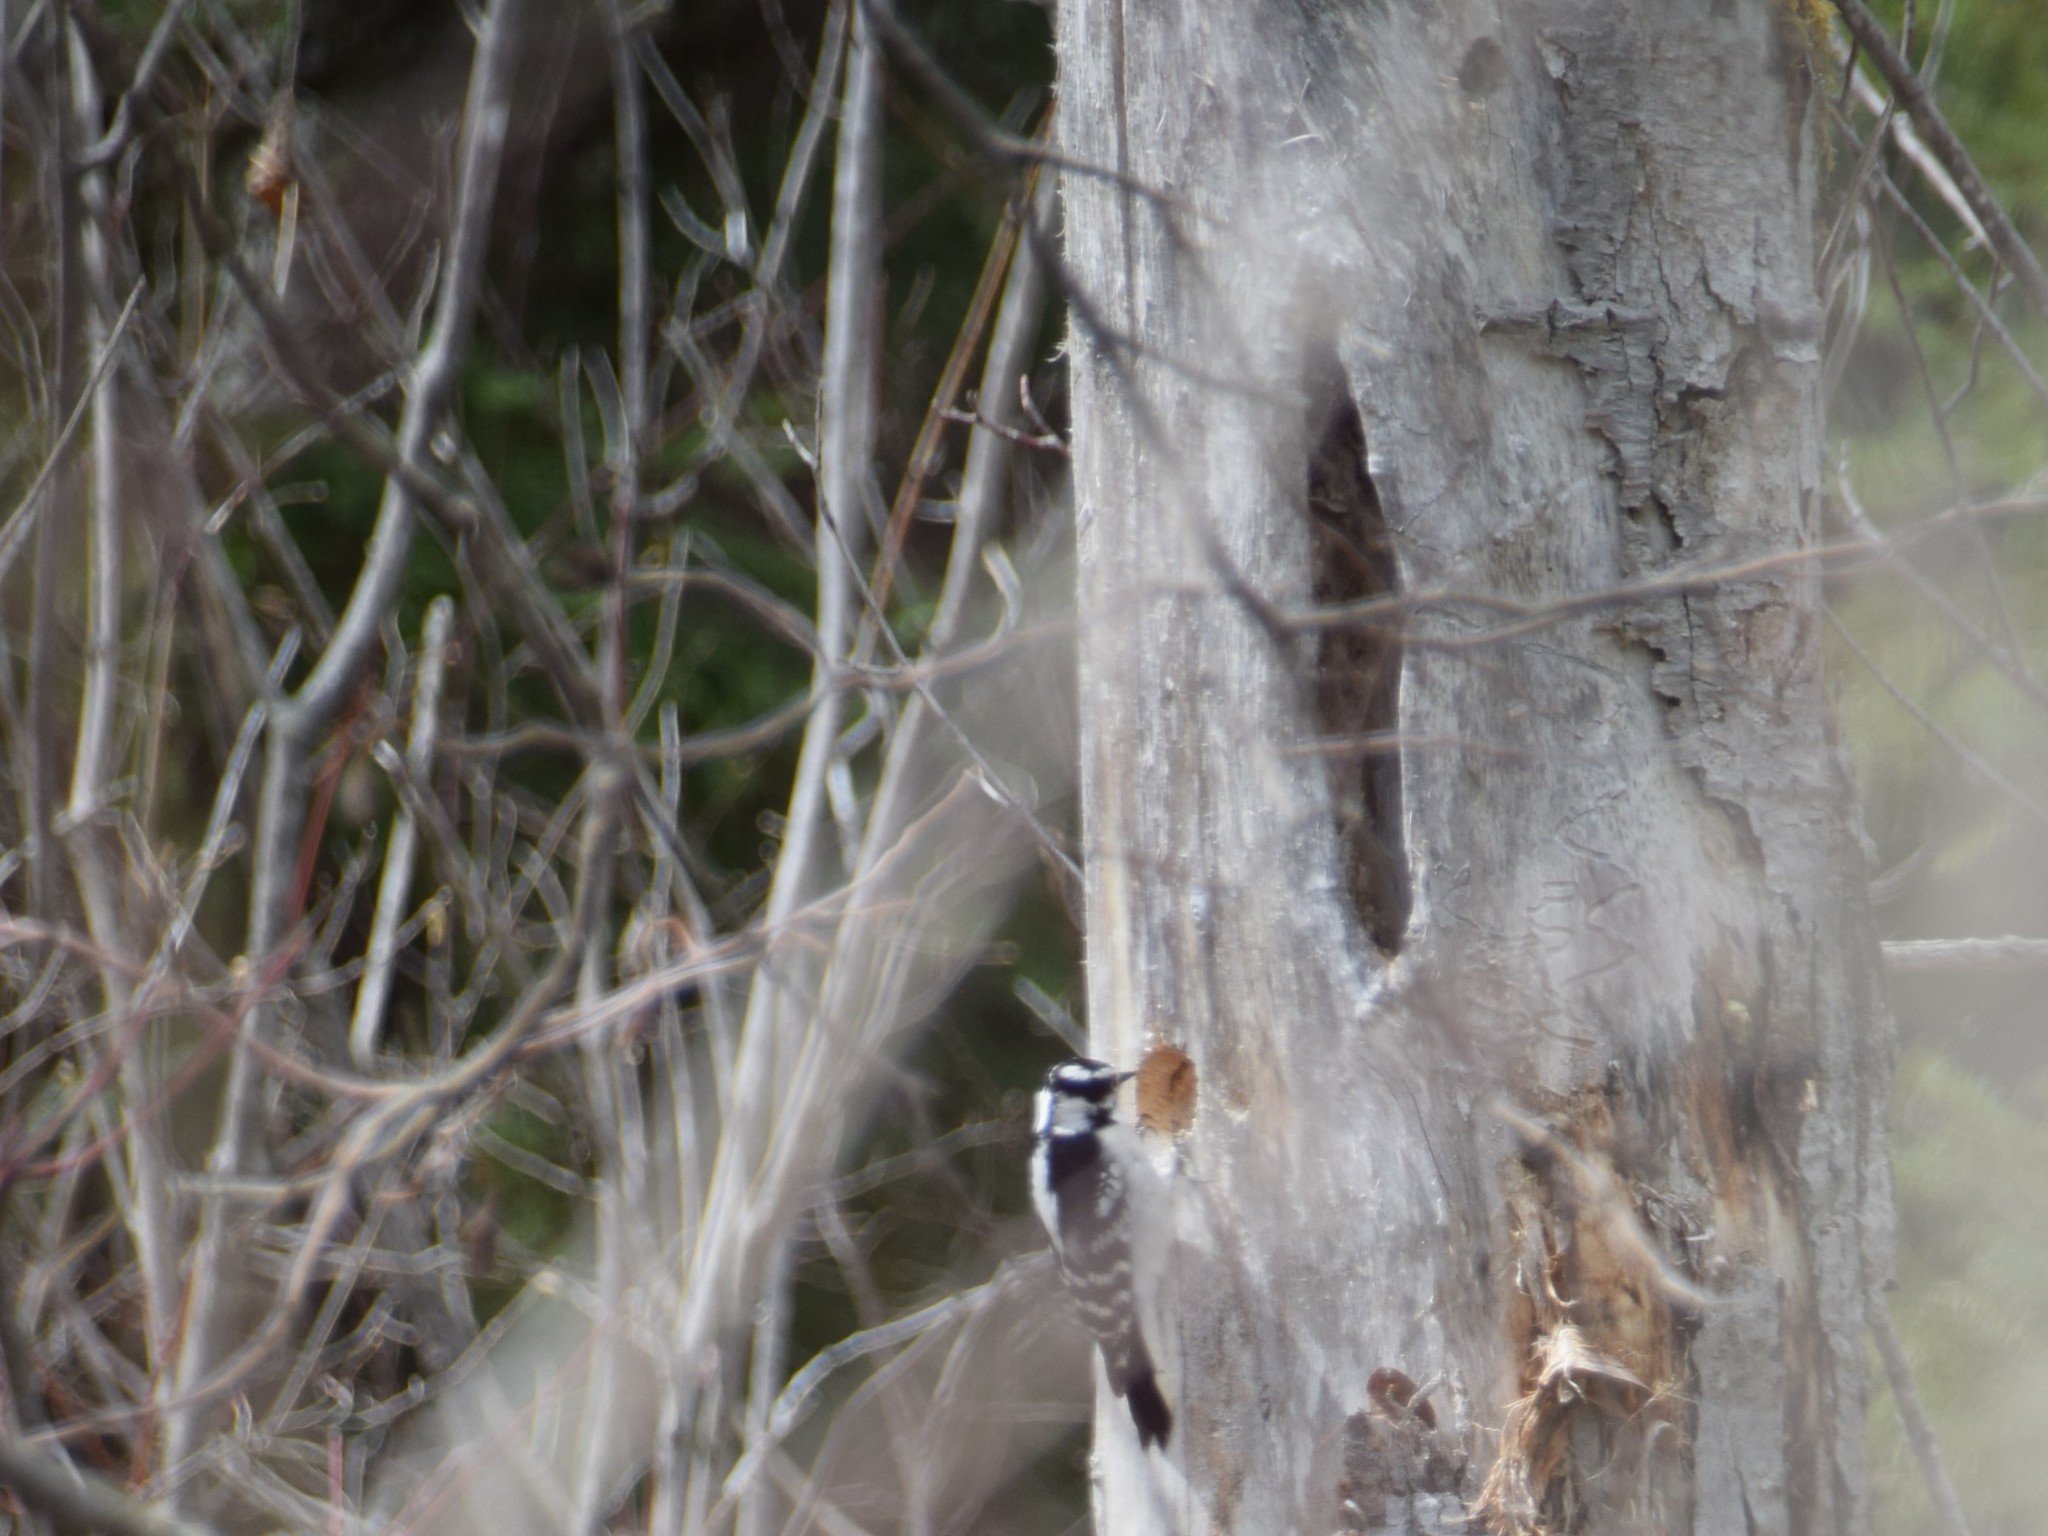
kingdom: Animalia
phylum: Chordata
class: Aves
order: Piciformes
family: Picidae
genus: Dryobates
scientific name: Dryobates pubescens
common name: Downy woodpecker
